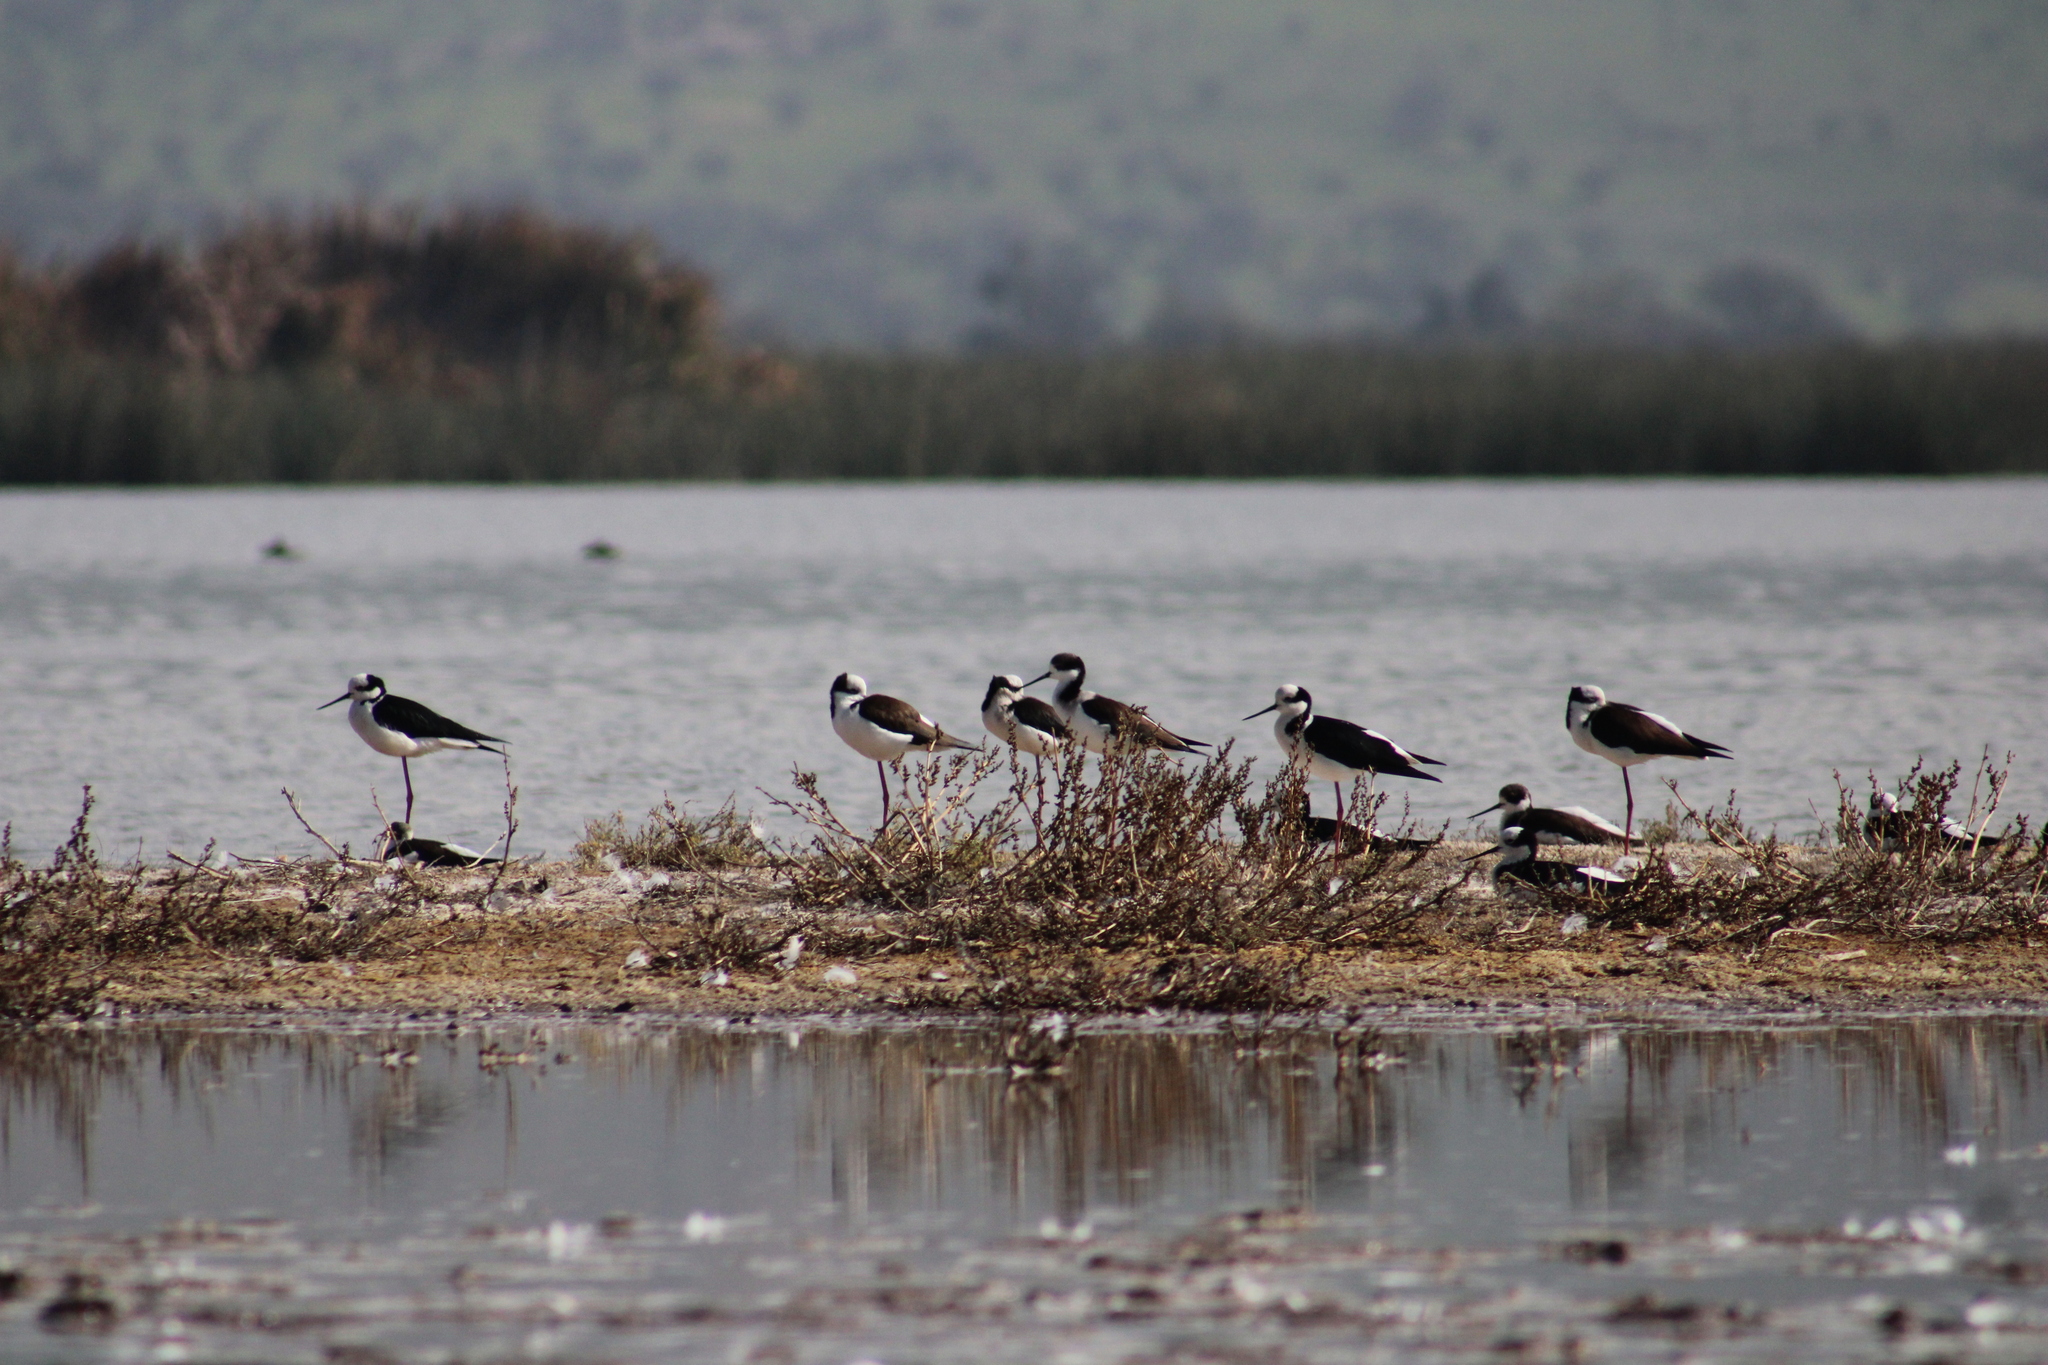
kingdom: Animalia
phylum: Chordata
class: Aves
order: Charadriiformes
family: Recurvirostridae
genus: Himantopus
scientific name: Himantopus mexicanus
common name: Black-necked stilt
